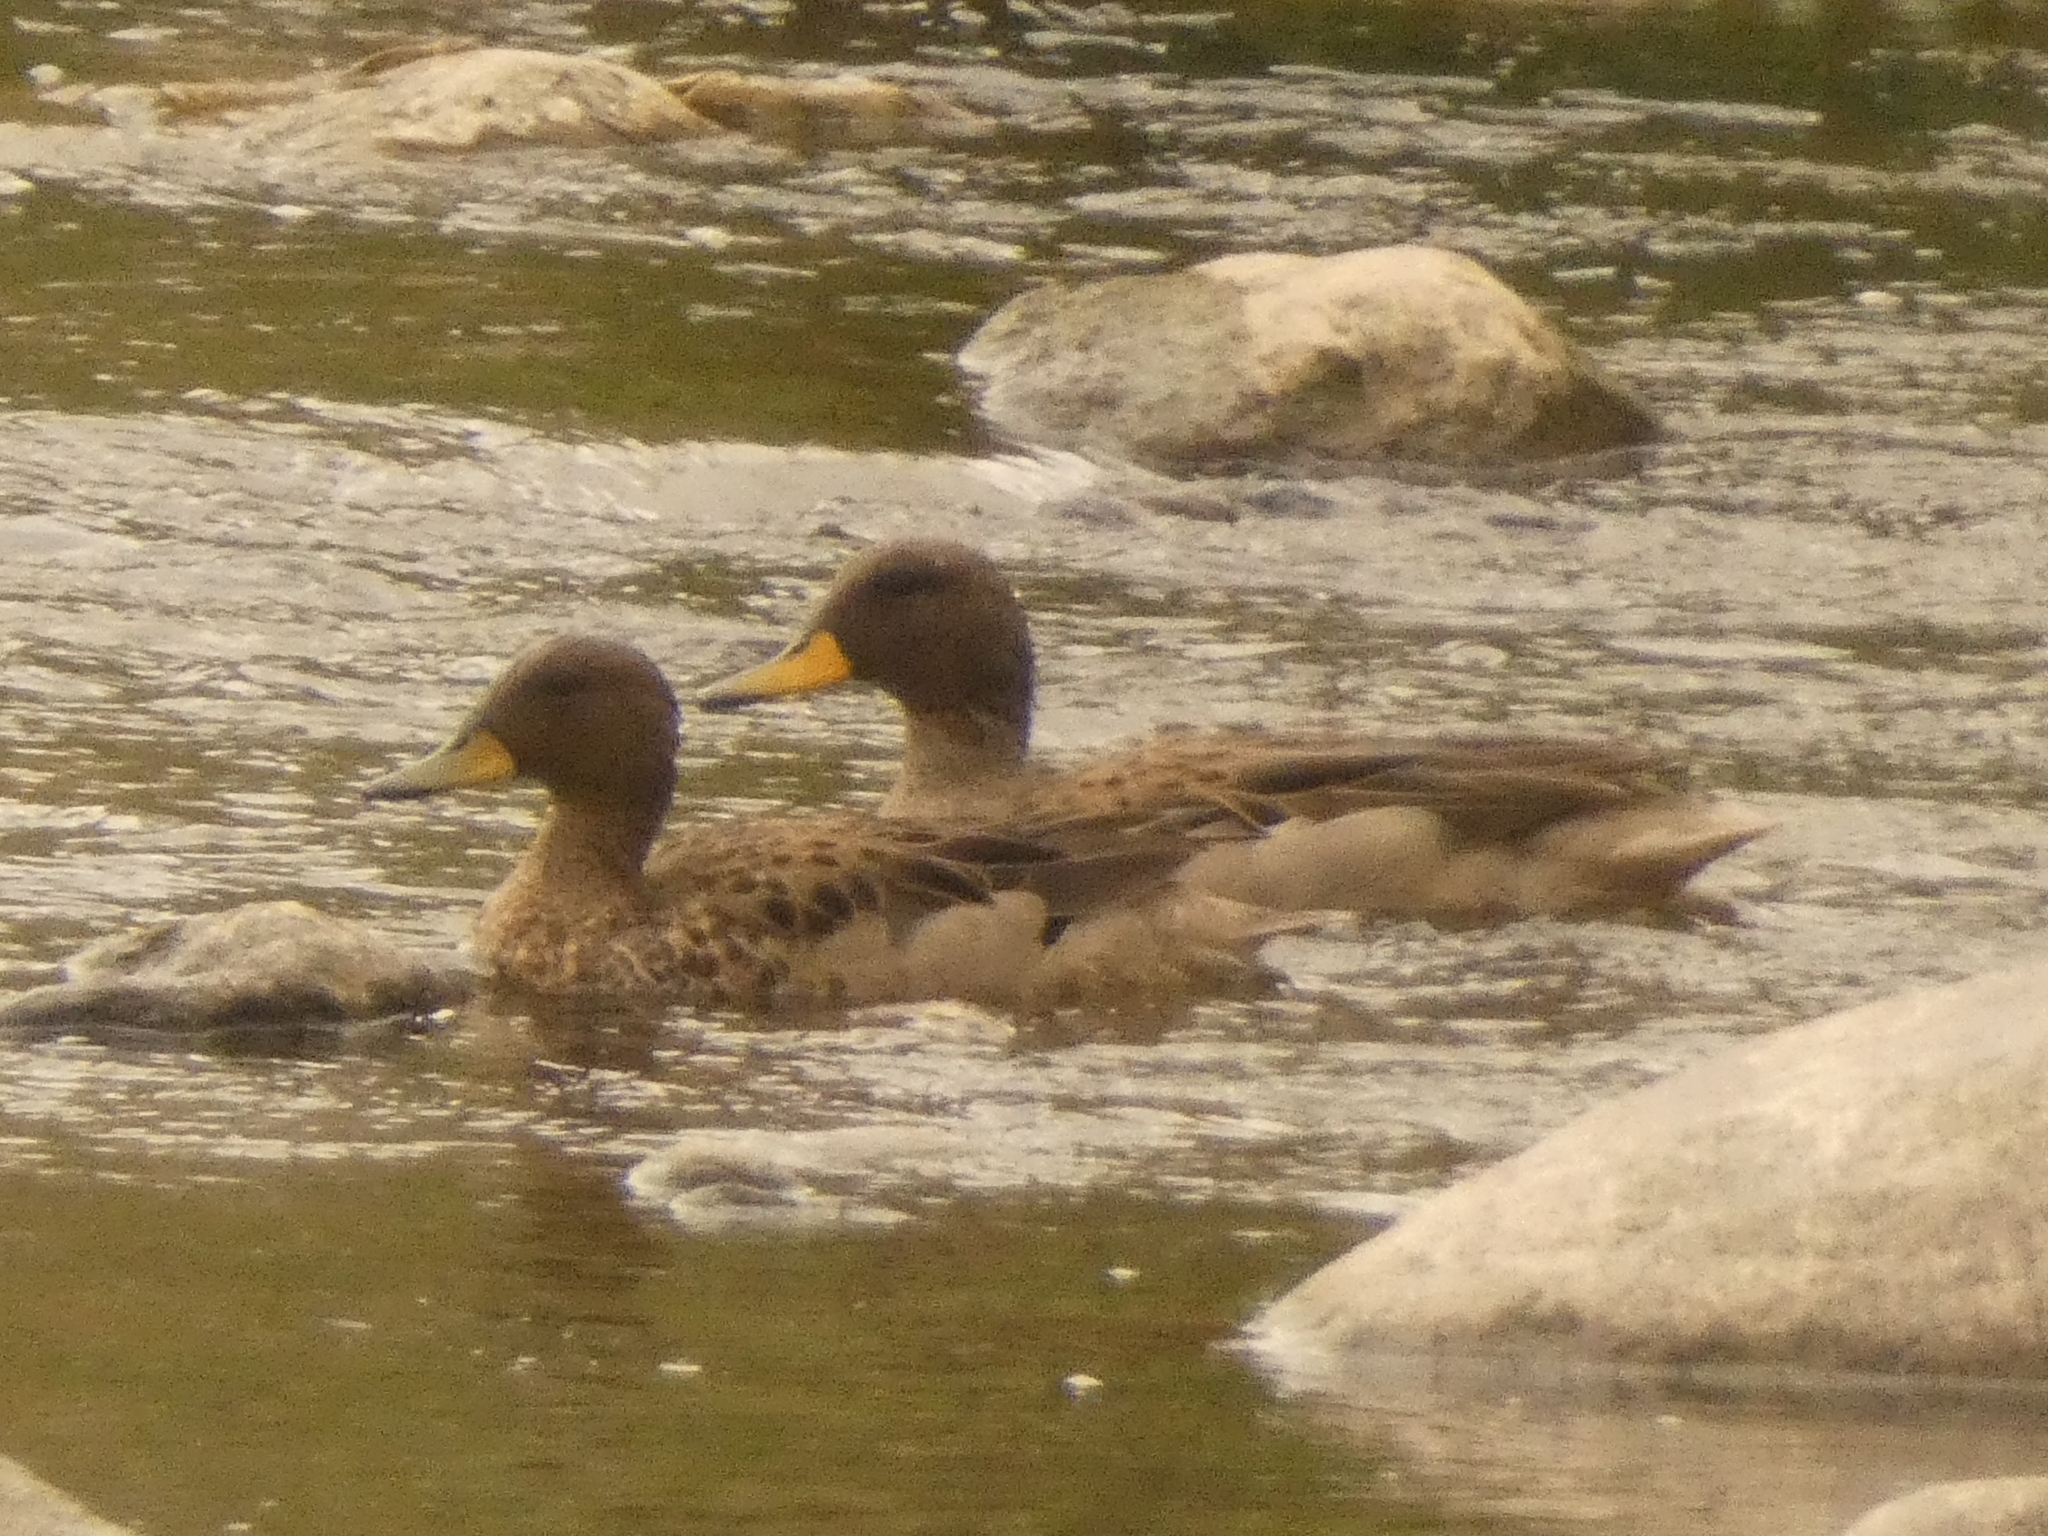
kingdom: Animalia
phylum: Chordata
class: Aves
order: Anseriformes
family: Anatidae
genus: Anas
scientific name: Anas flavirostris
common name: Yellow-billed teal
